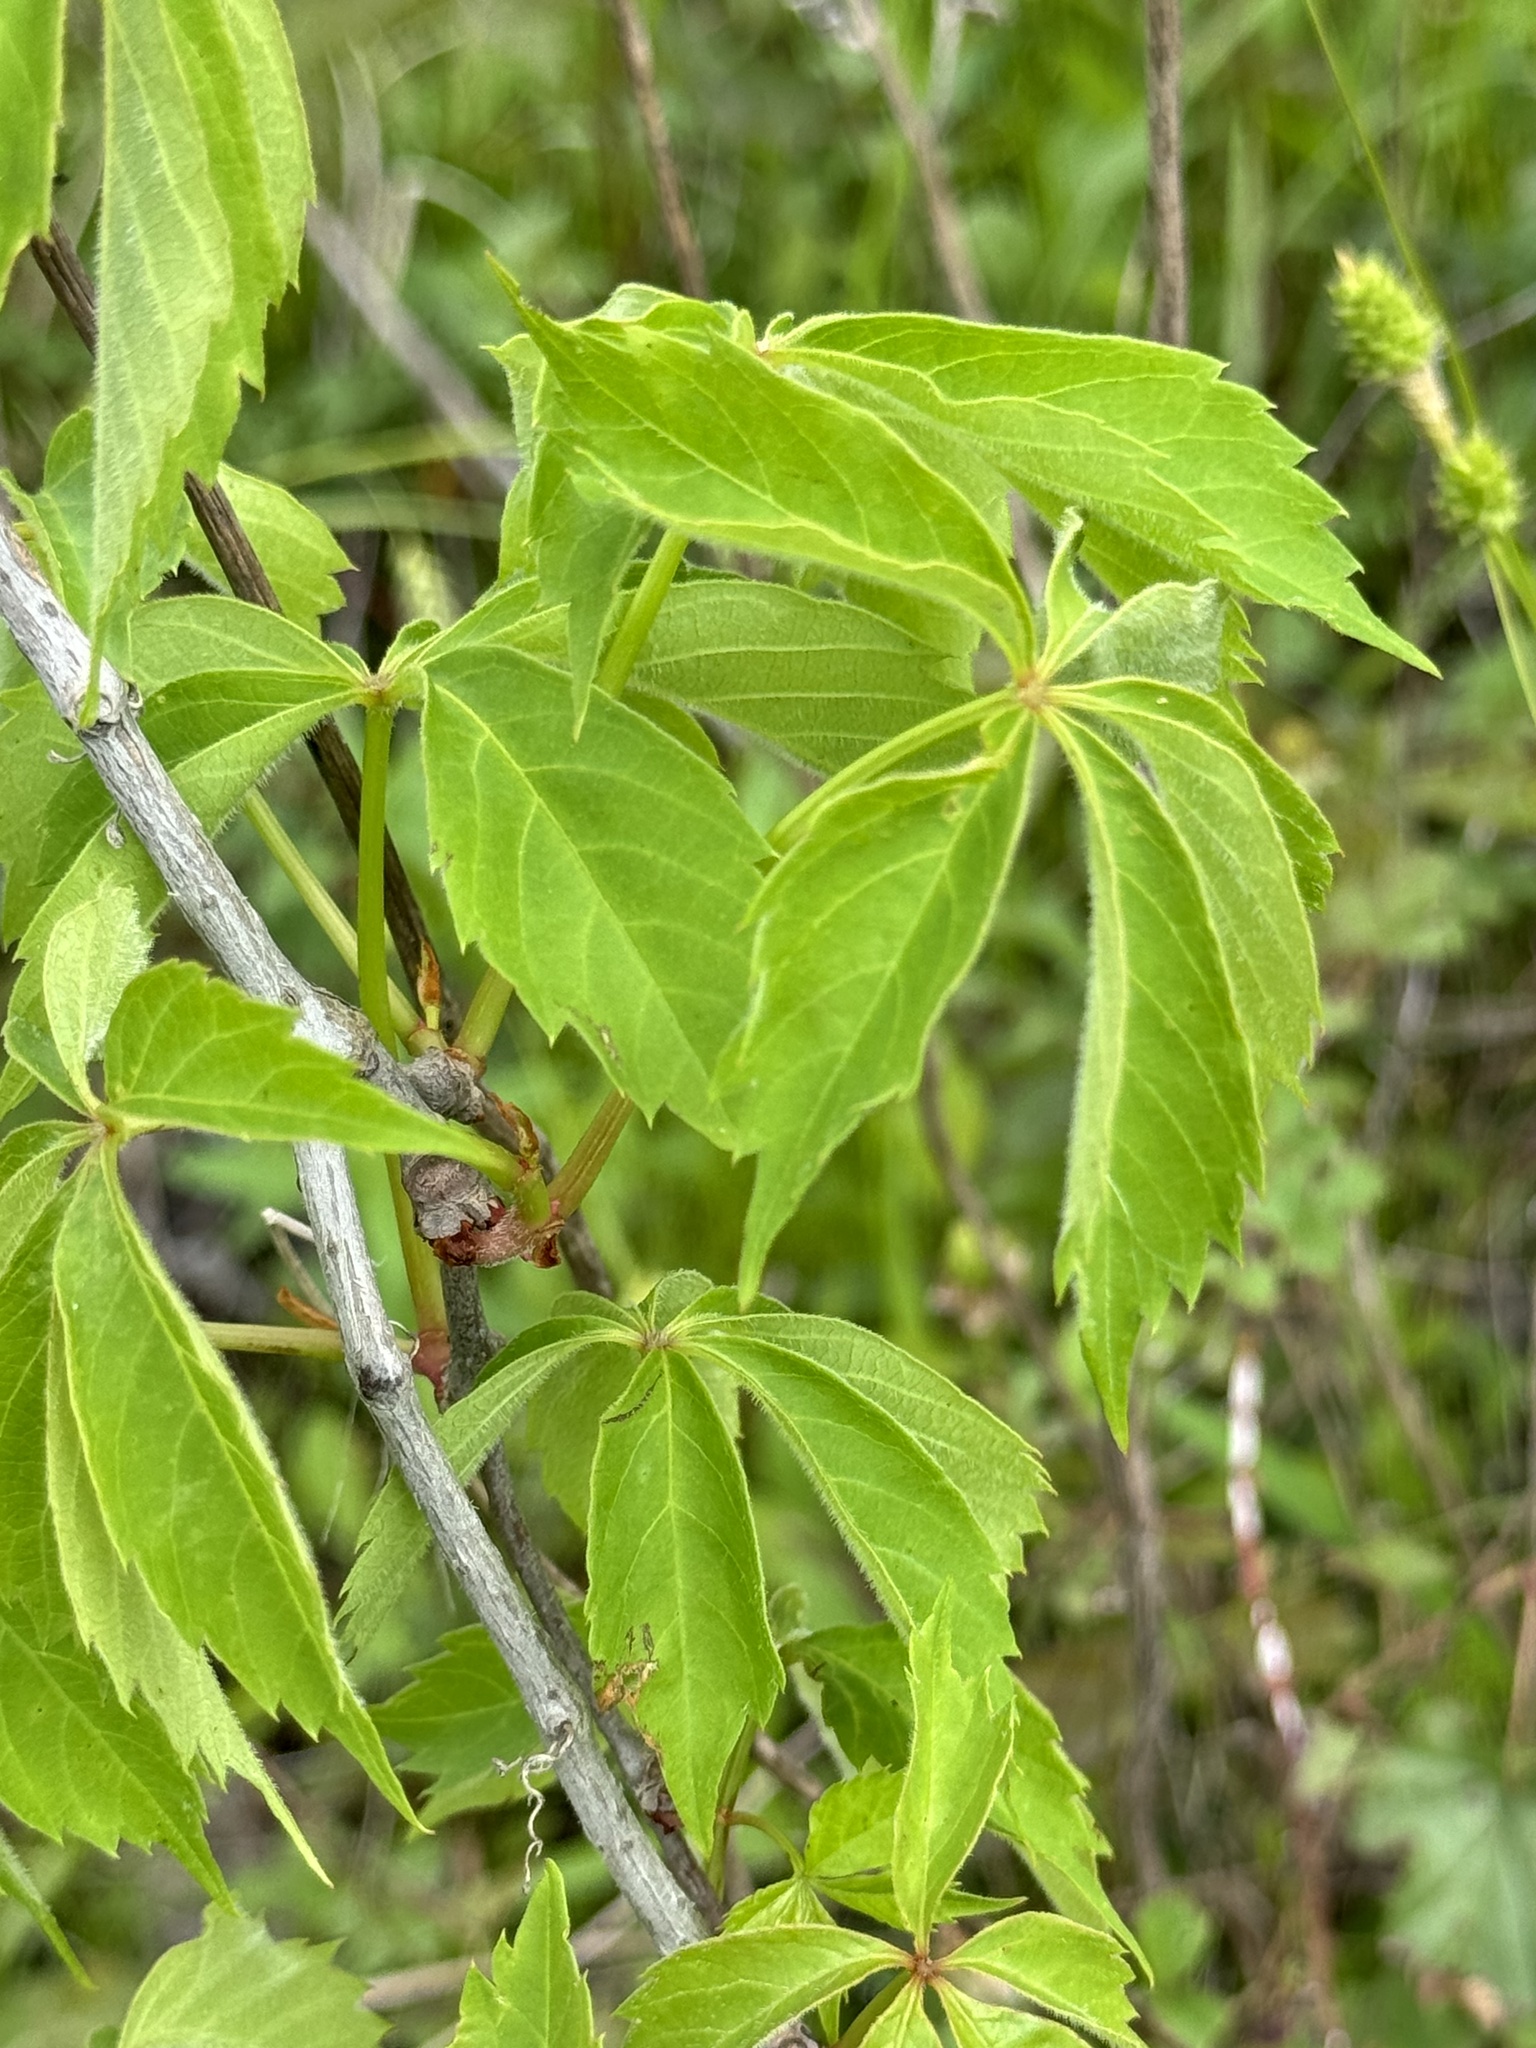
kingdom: Plantae
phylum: Tracheophyta
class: Magnoliopsida
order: Vitales
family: Vitaceae
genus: Parthenocissus
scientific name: Parthenocissus quinquefolia
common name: Virginia-creeper
